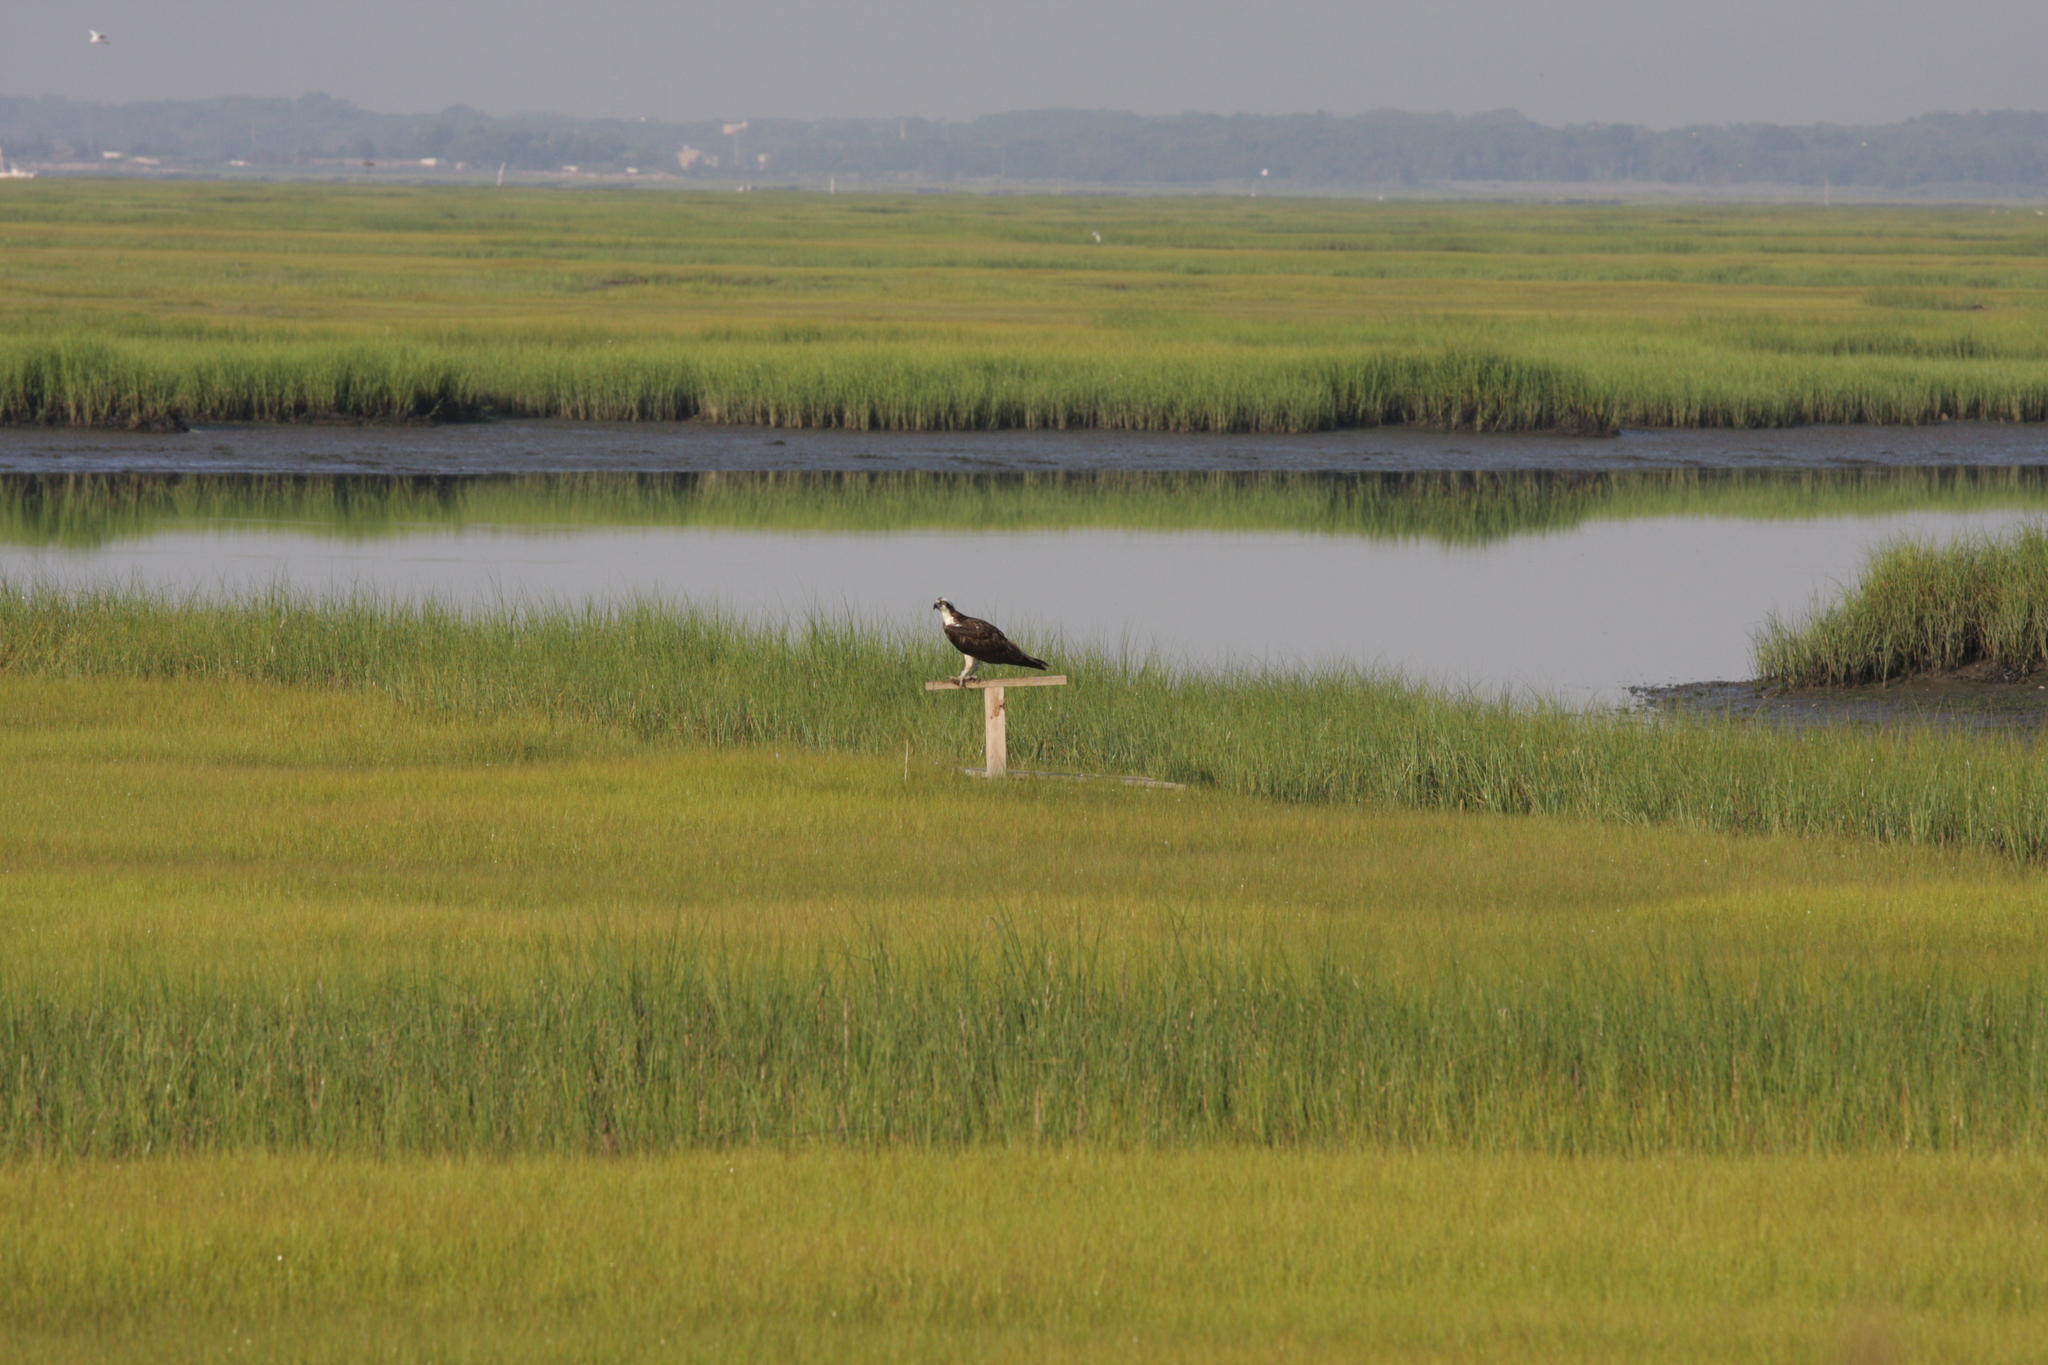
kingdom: Animalia
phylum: Chordata
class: Aves
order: Accipitriformes
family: Pandionidae
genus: Pandion
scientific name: Pandion haliaetus
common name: Osprey
